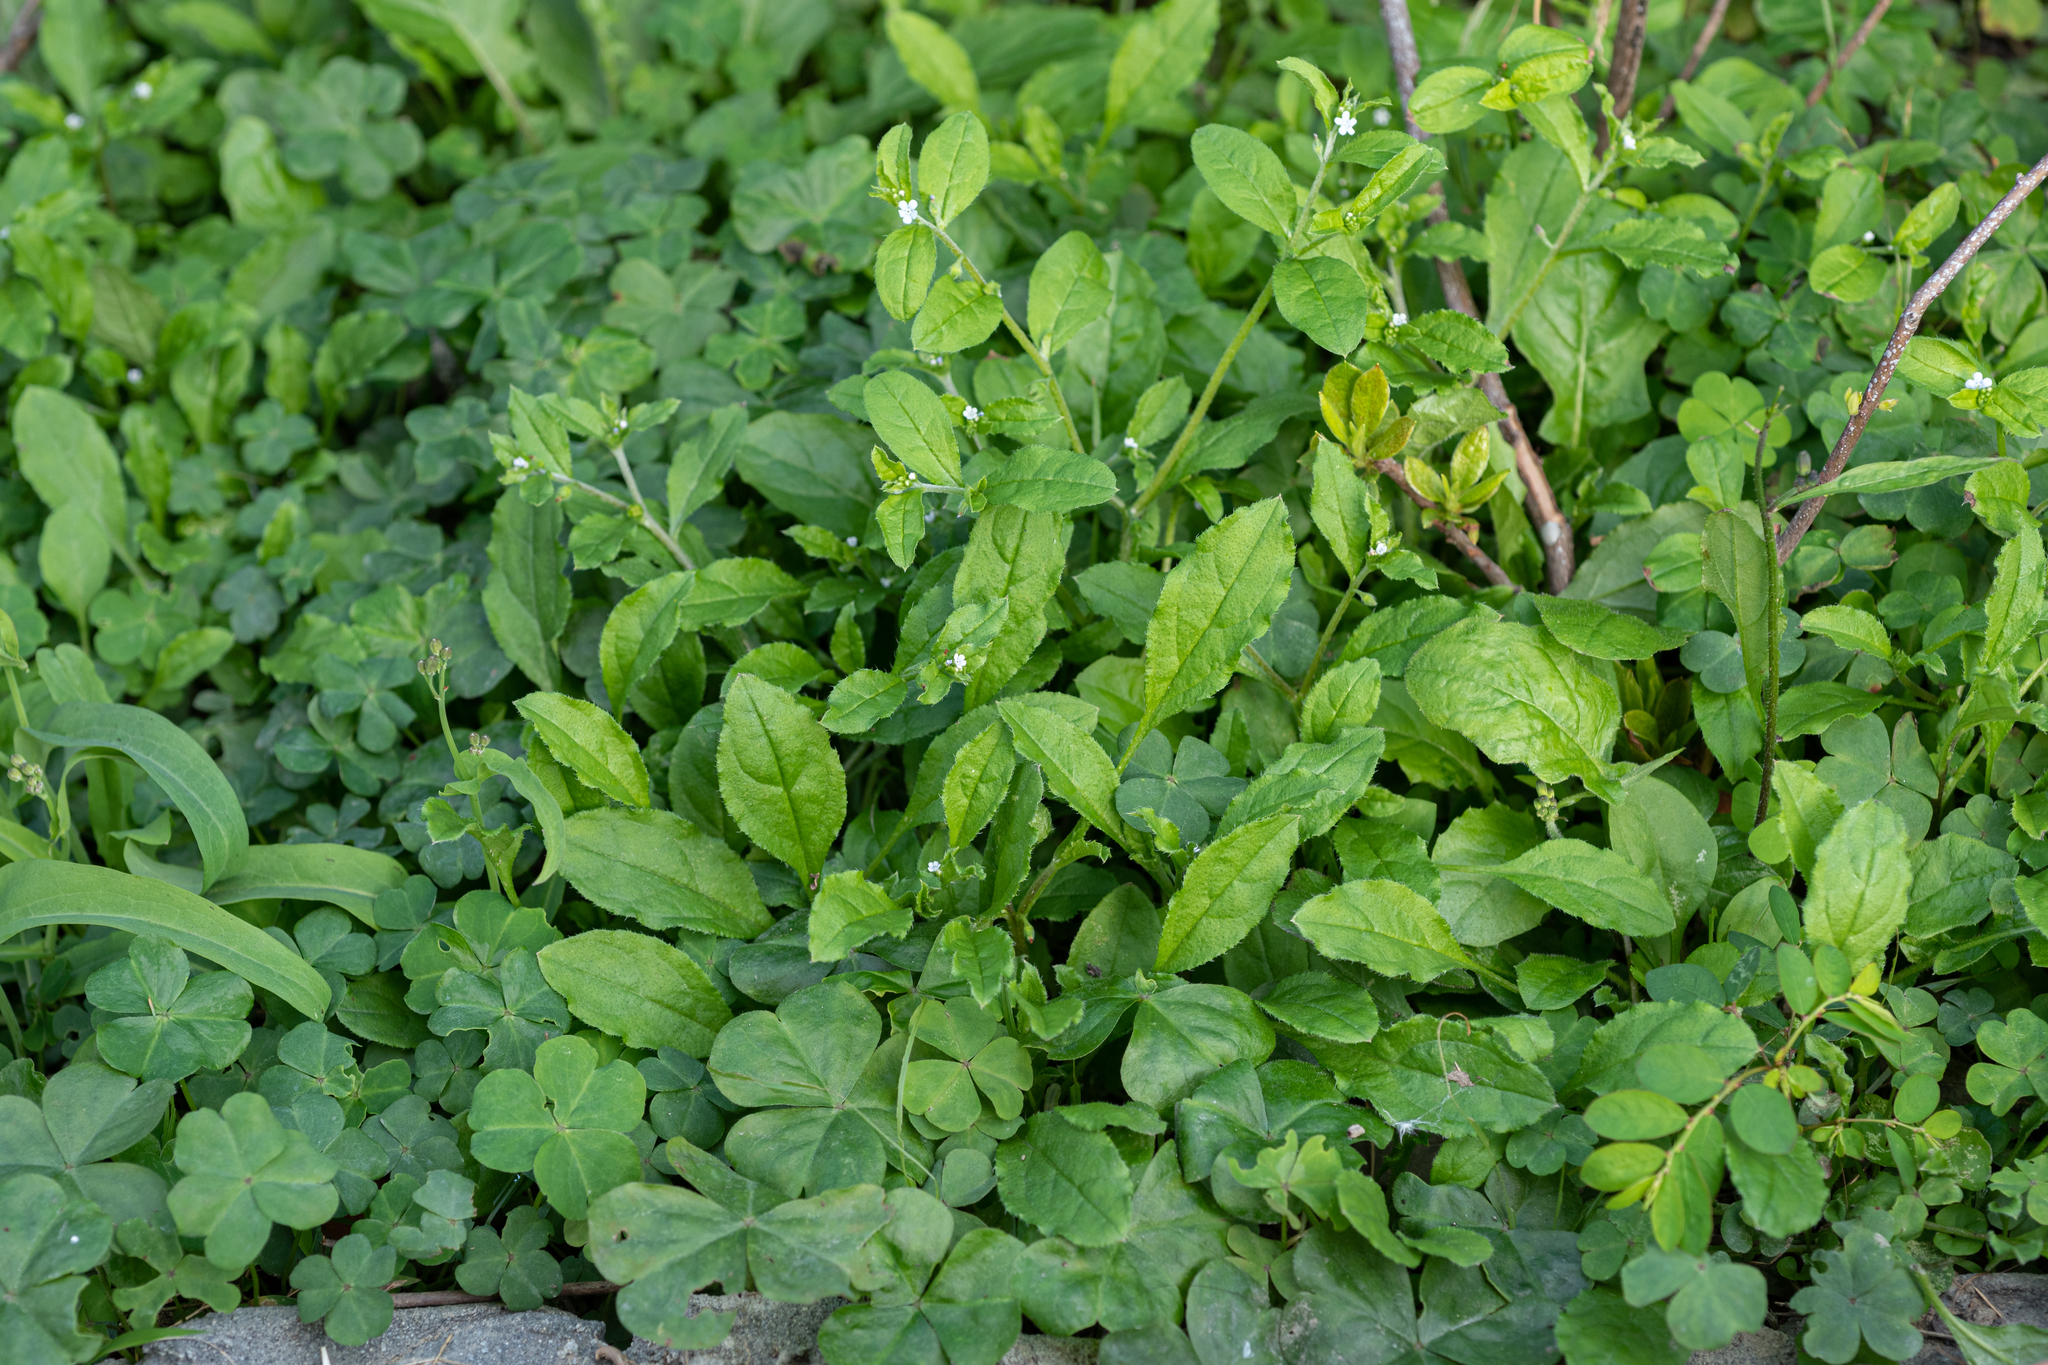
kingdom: Plantae
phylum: Tracheophyta
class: Magnoliopsida
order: Boraginales
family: Boraginaceae
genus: Bothriospermum
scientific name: Bothriospermum zeylanicum
